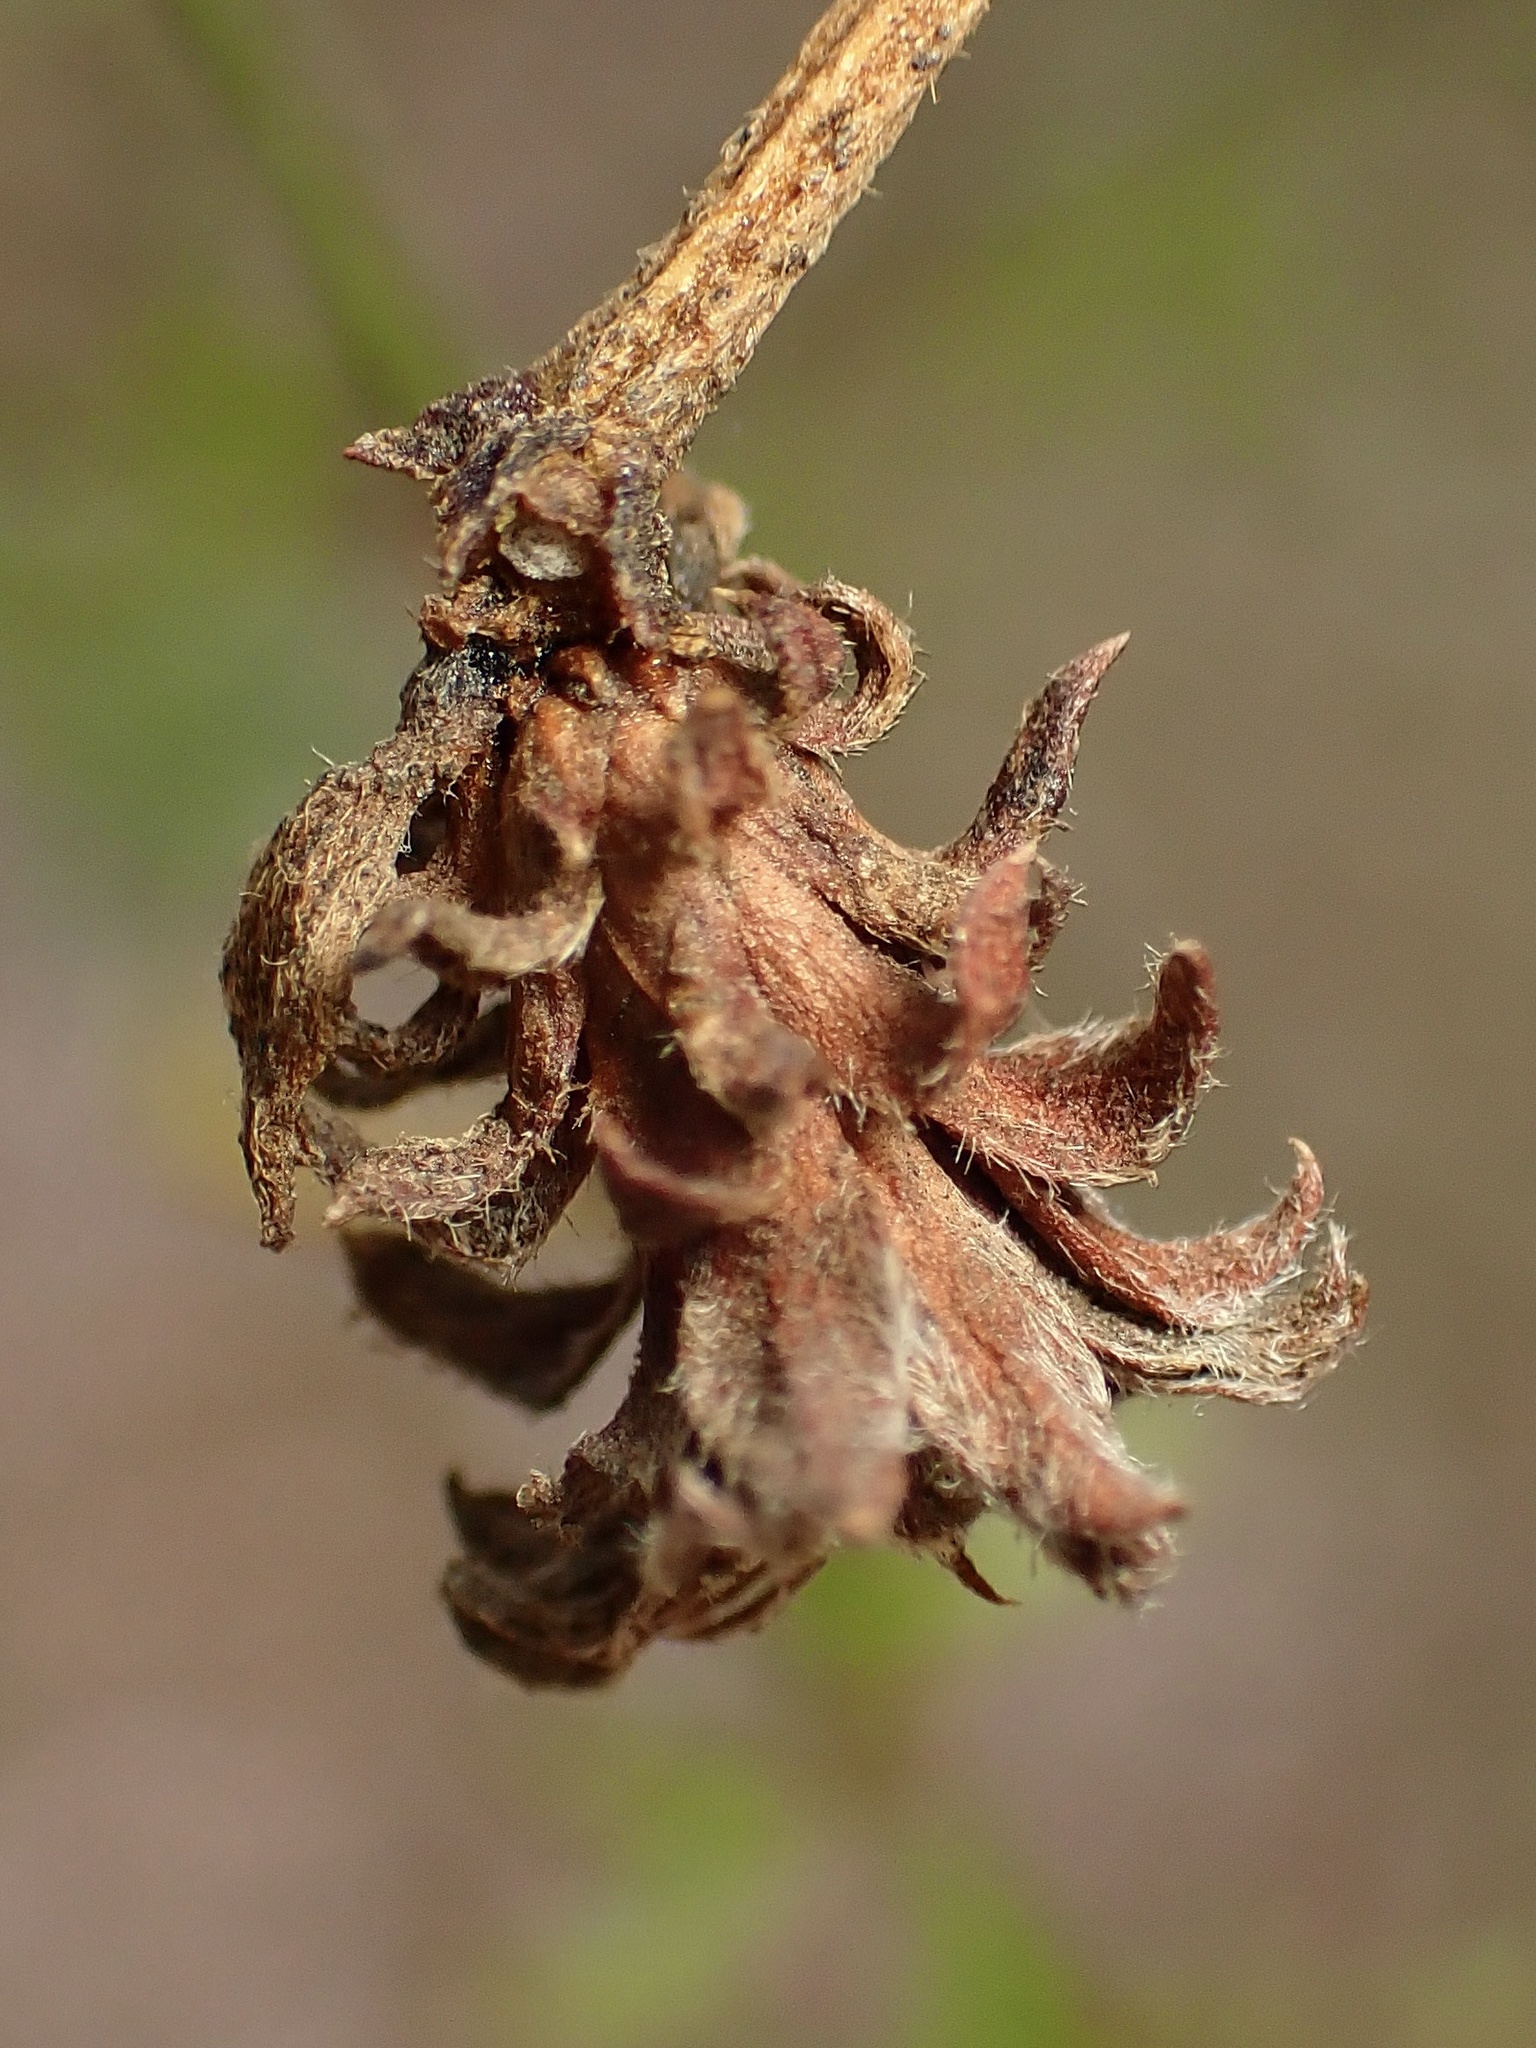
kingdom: Animalia
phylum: Arthropoda
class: Insecta
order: Diptera
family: Cecidomyiidae
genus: Asphondylia
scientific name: Asphondylia rosetta
